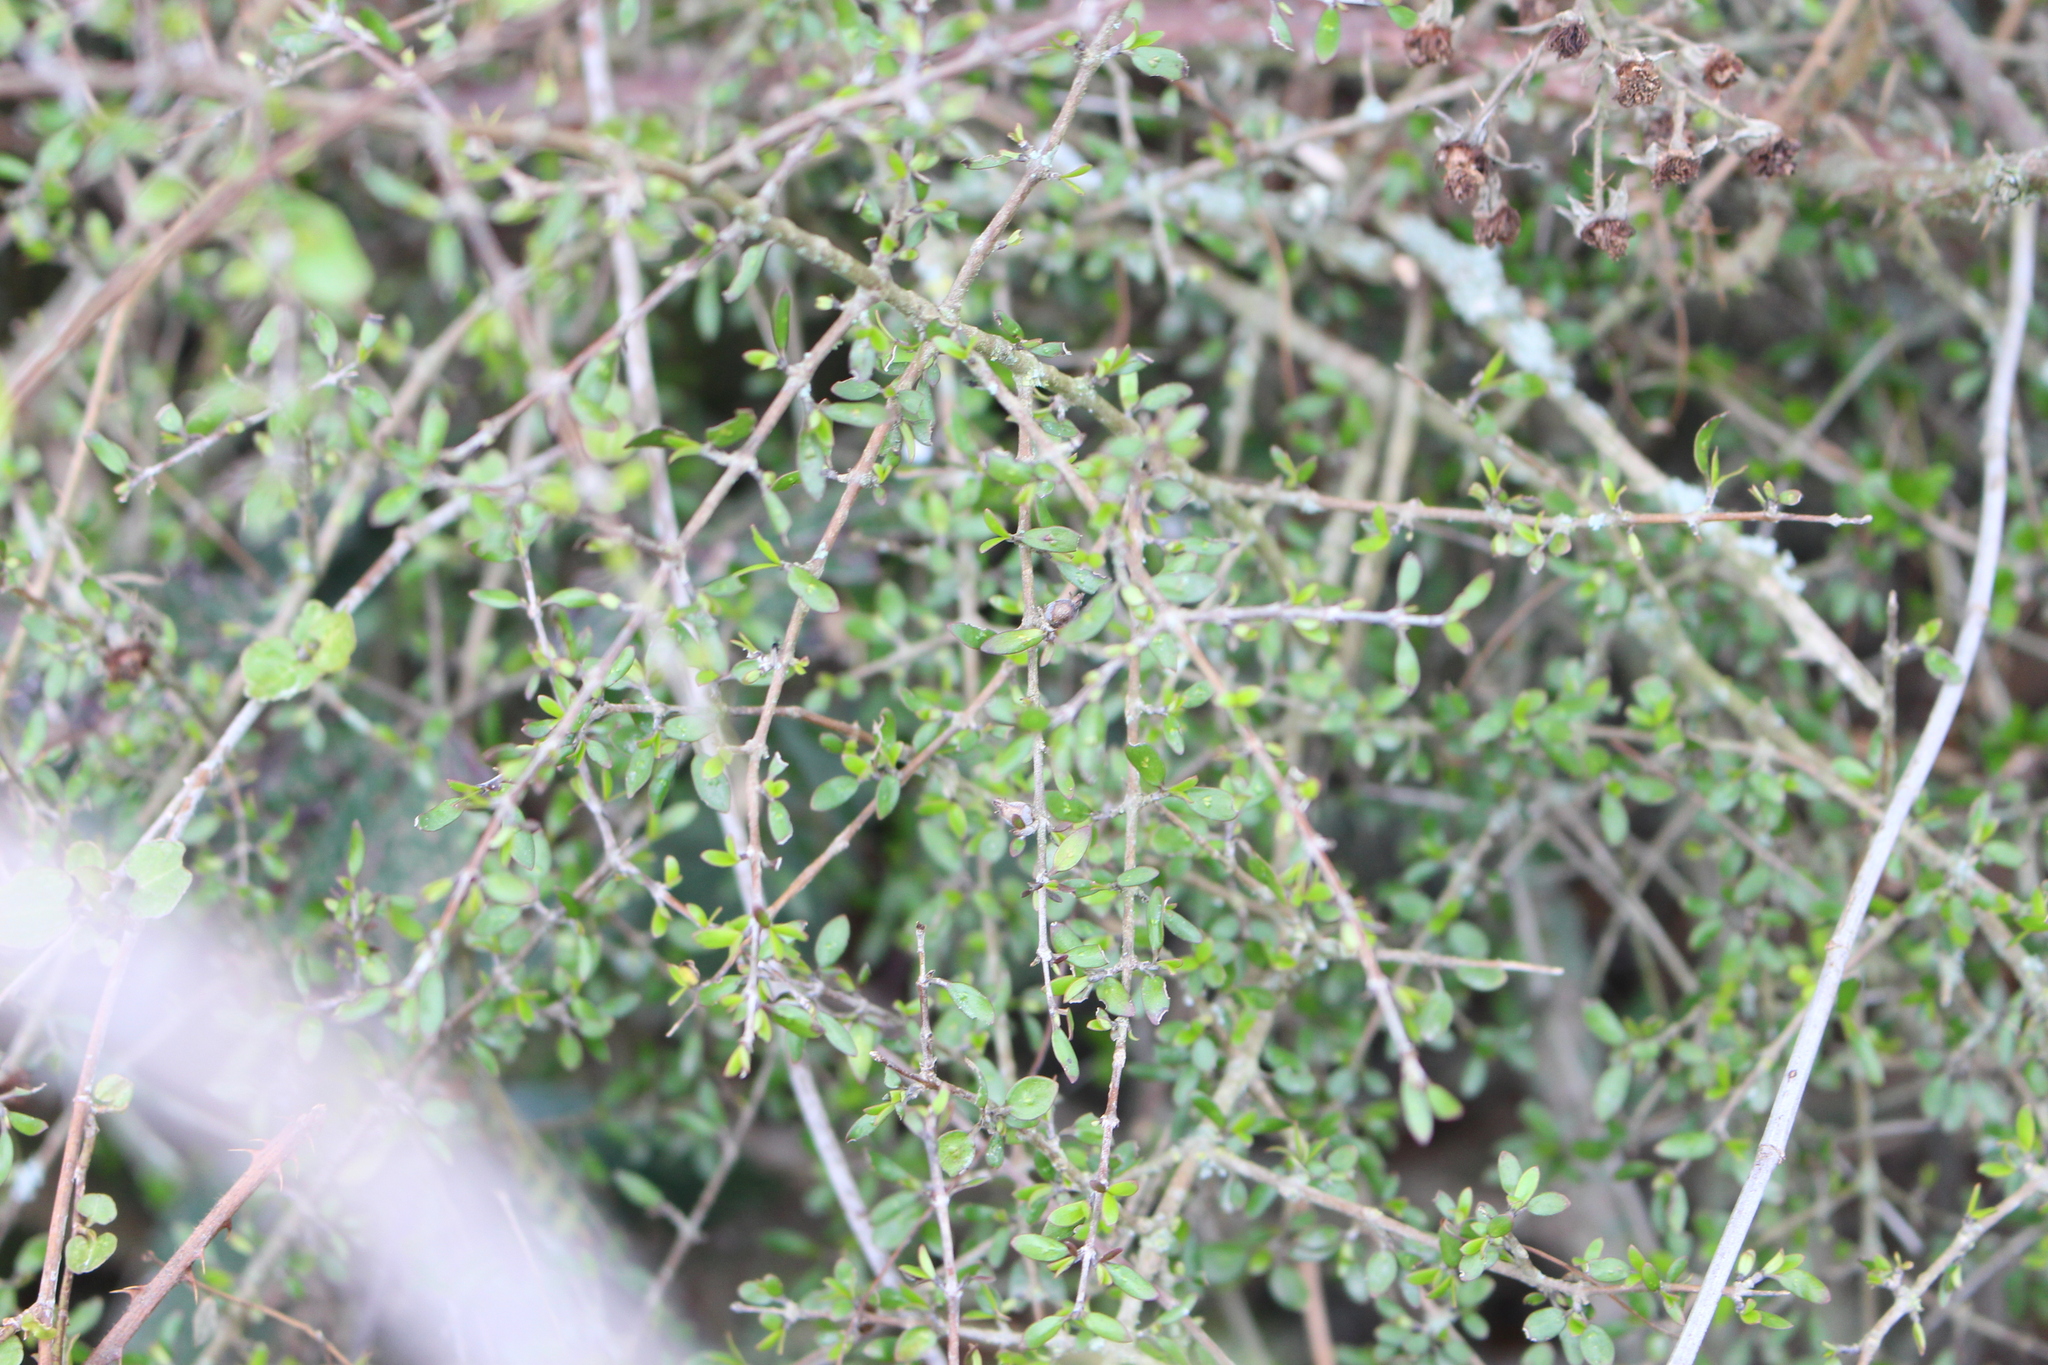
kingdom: Plantae
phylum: Tracheophyta
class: Magnoliopsida
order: Gentianales
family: Rubiaceae
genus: Coprosma
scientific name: Coprosma propinqua
